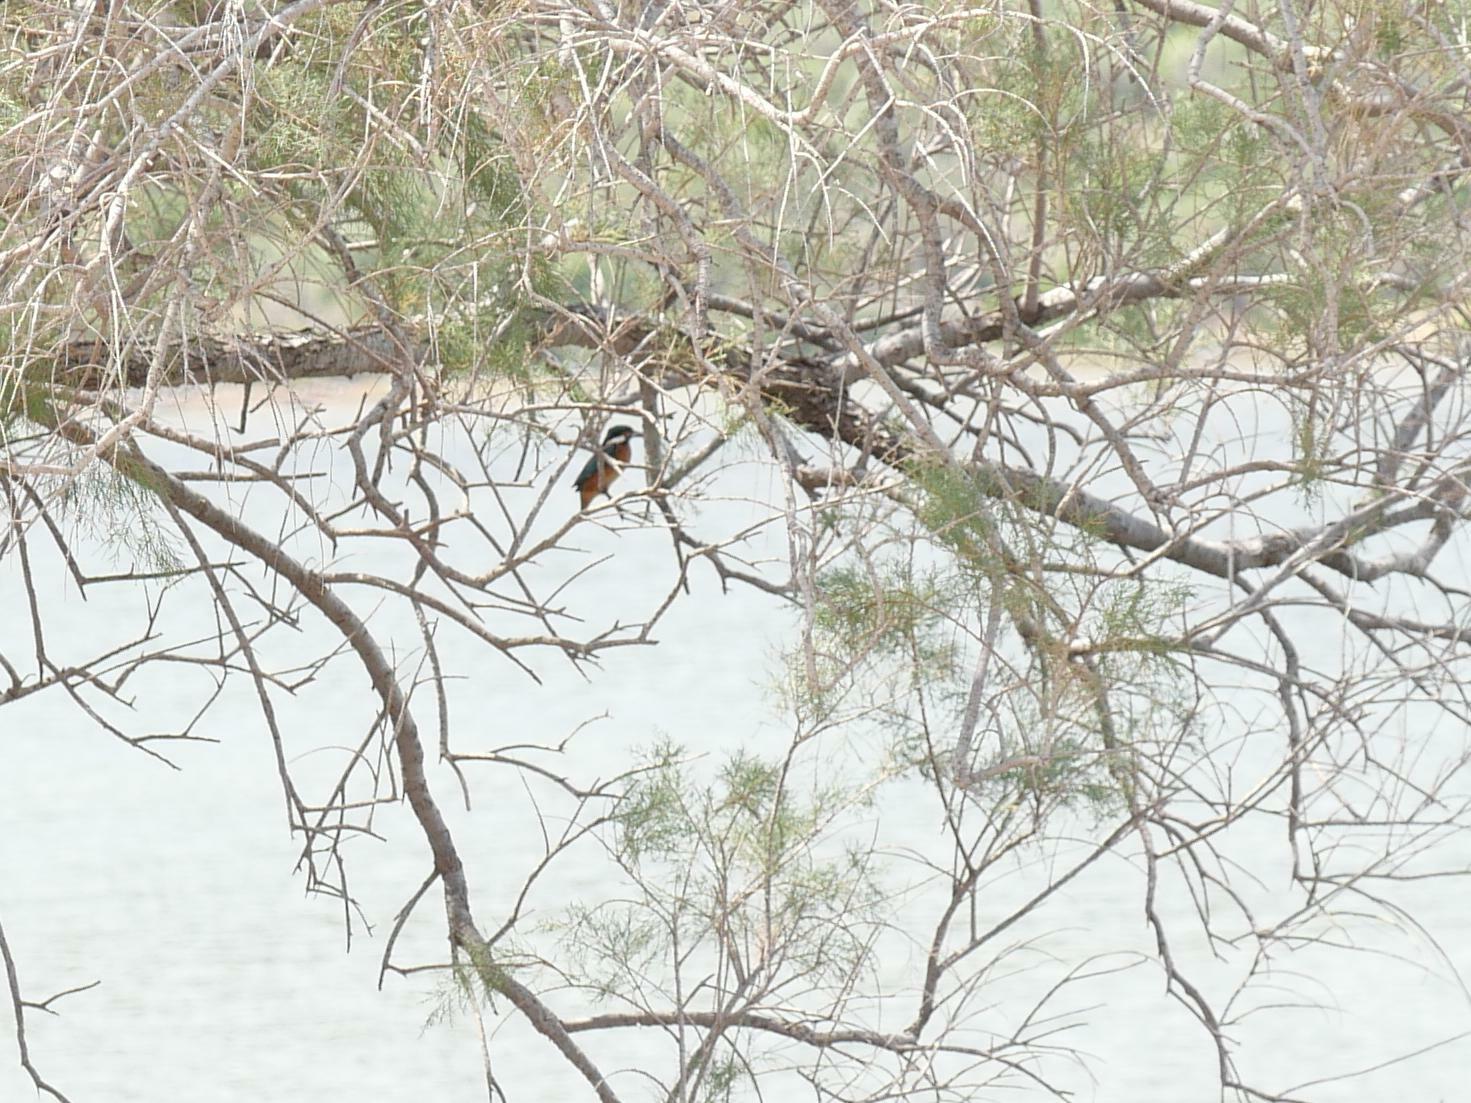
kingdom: Animalia
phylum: Chordata
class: Aves
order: Coraciiformes
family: Alcedinidae
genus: Alcedo
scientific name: Alcedo atthis
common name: Common kingfisher
